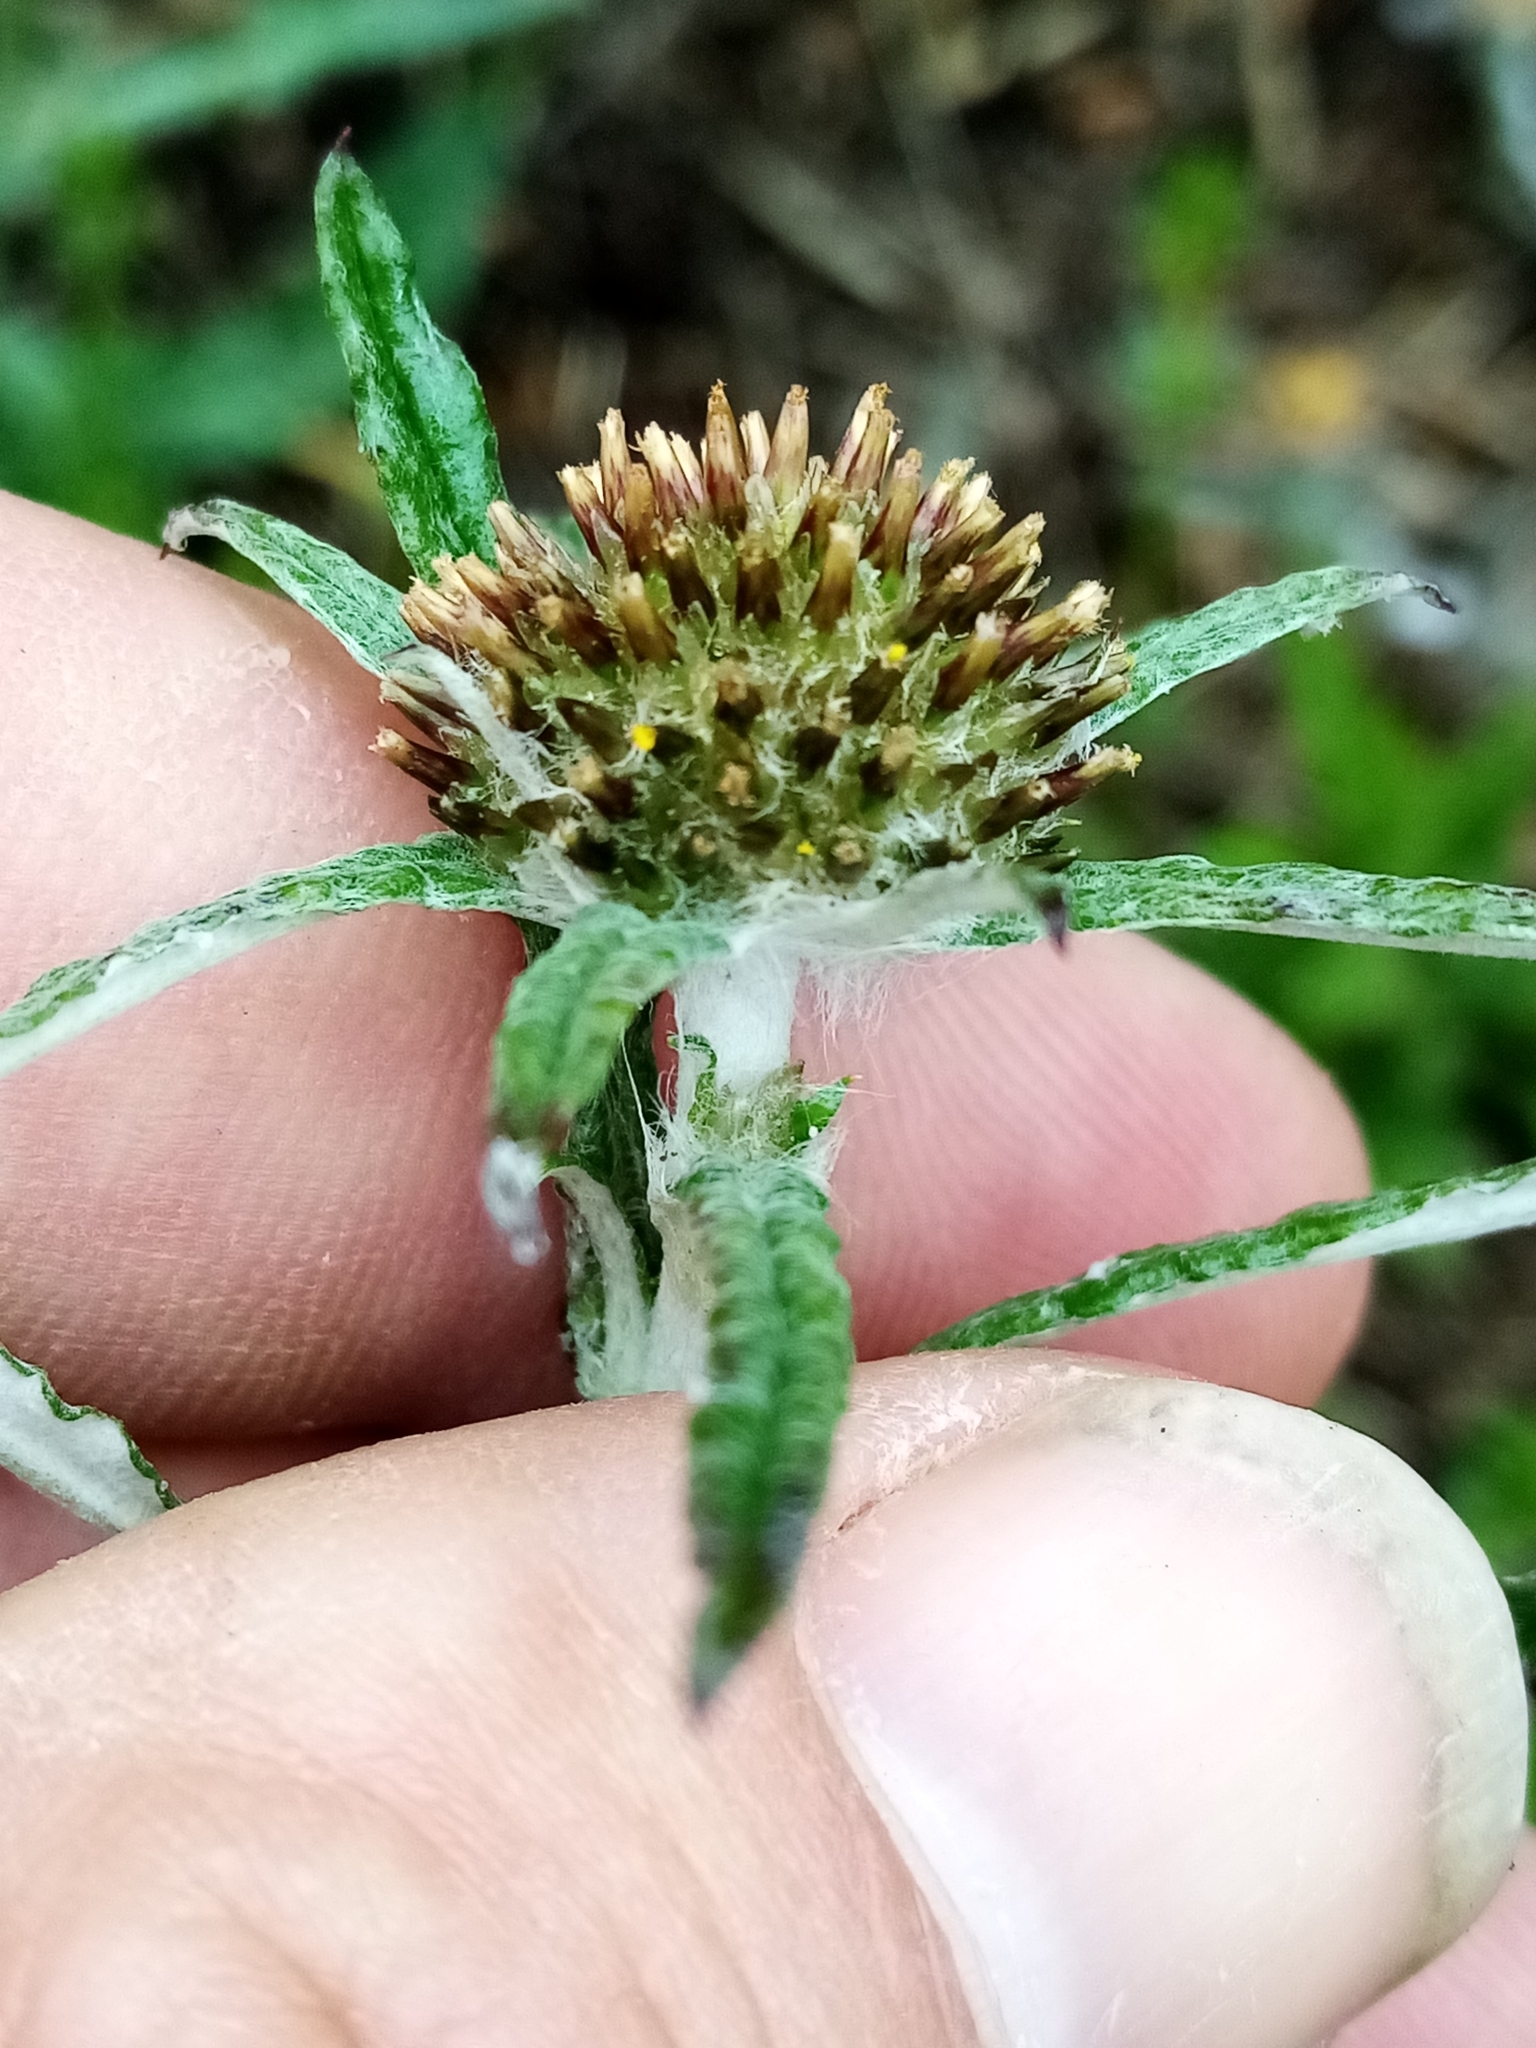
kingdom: Plantae
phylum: Tracheophyta
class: Magnoliopsida
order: Asterales
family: Asteraceae
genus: Euchiton
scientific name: Euchiton sphaericus
